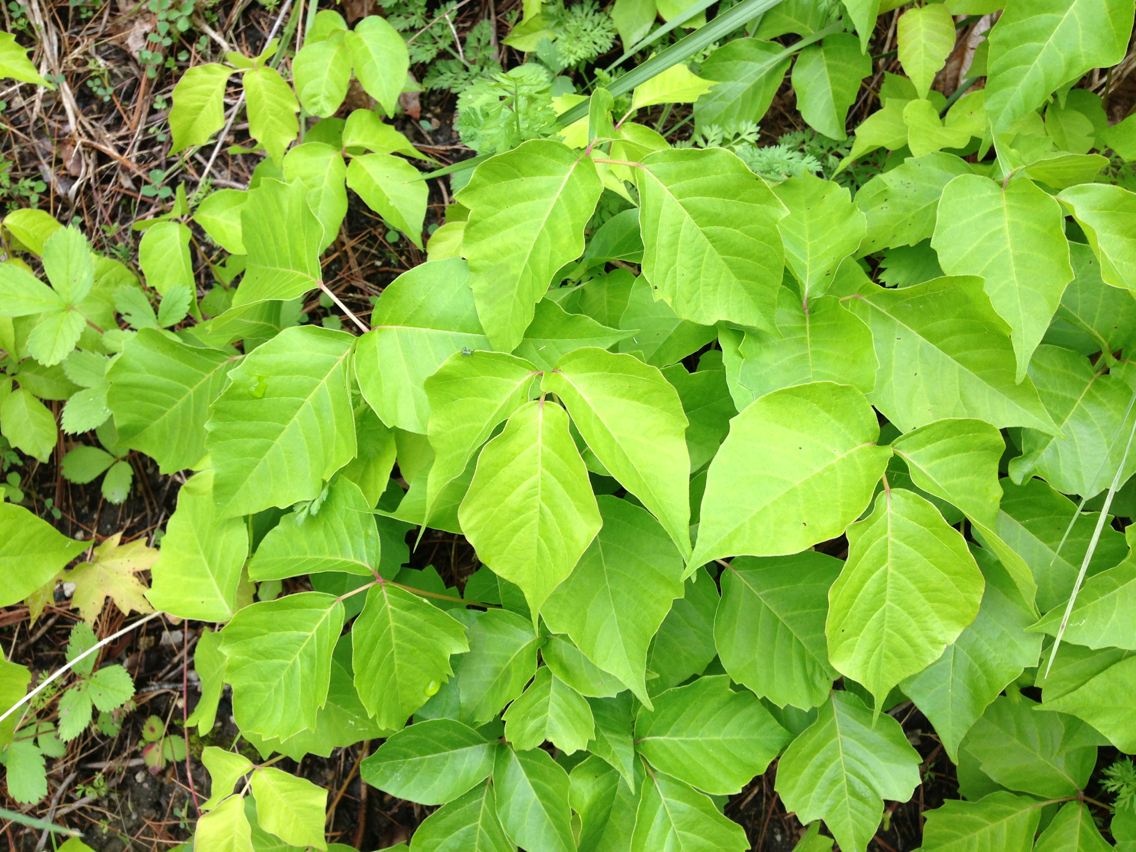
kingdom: Plantae
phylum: Tracheophyta
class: Magnoliopsida
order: Sapindales
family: Anacardiaceae
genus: Toxicodendron
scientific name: Toxicodendron radicans
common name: Poison ivy
